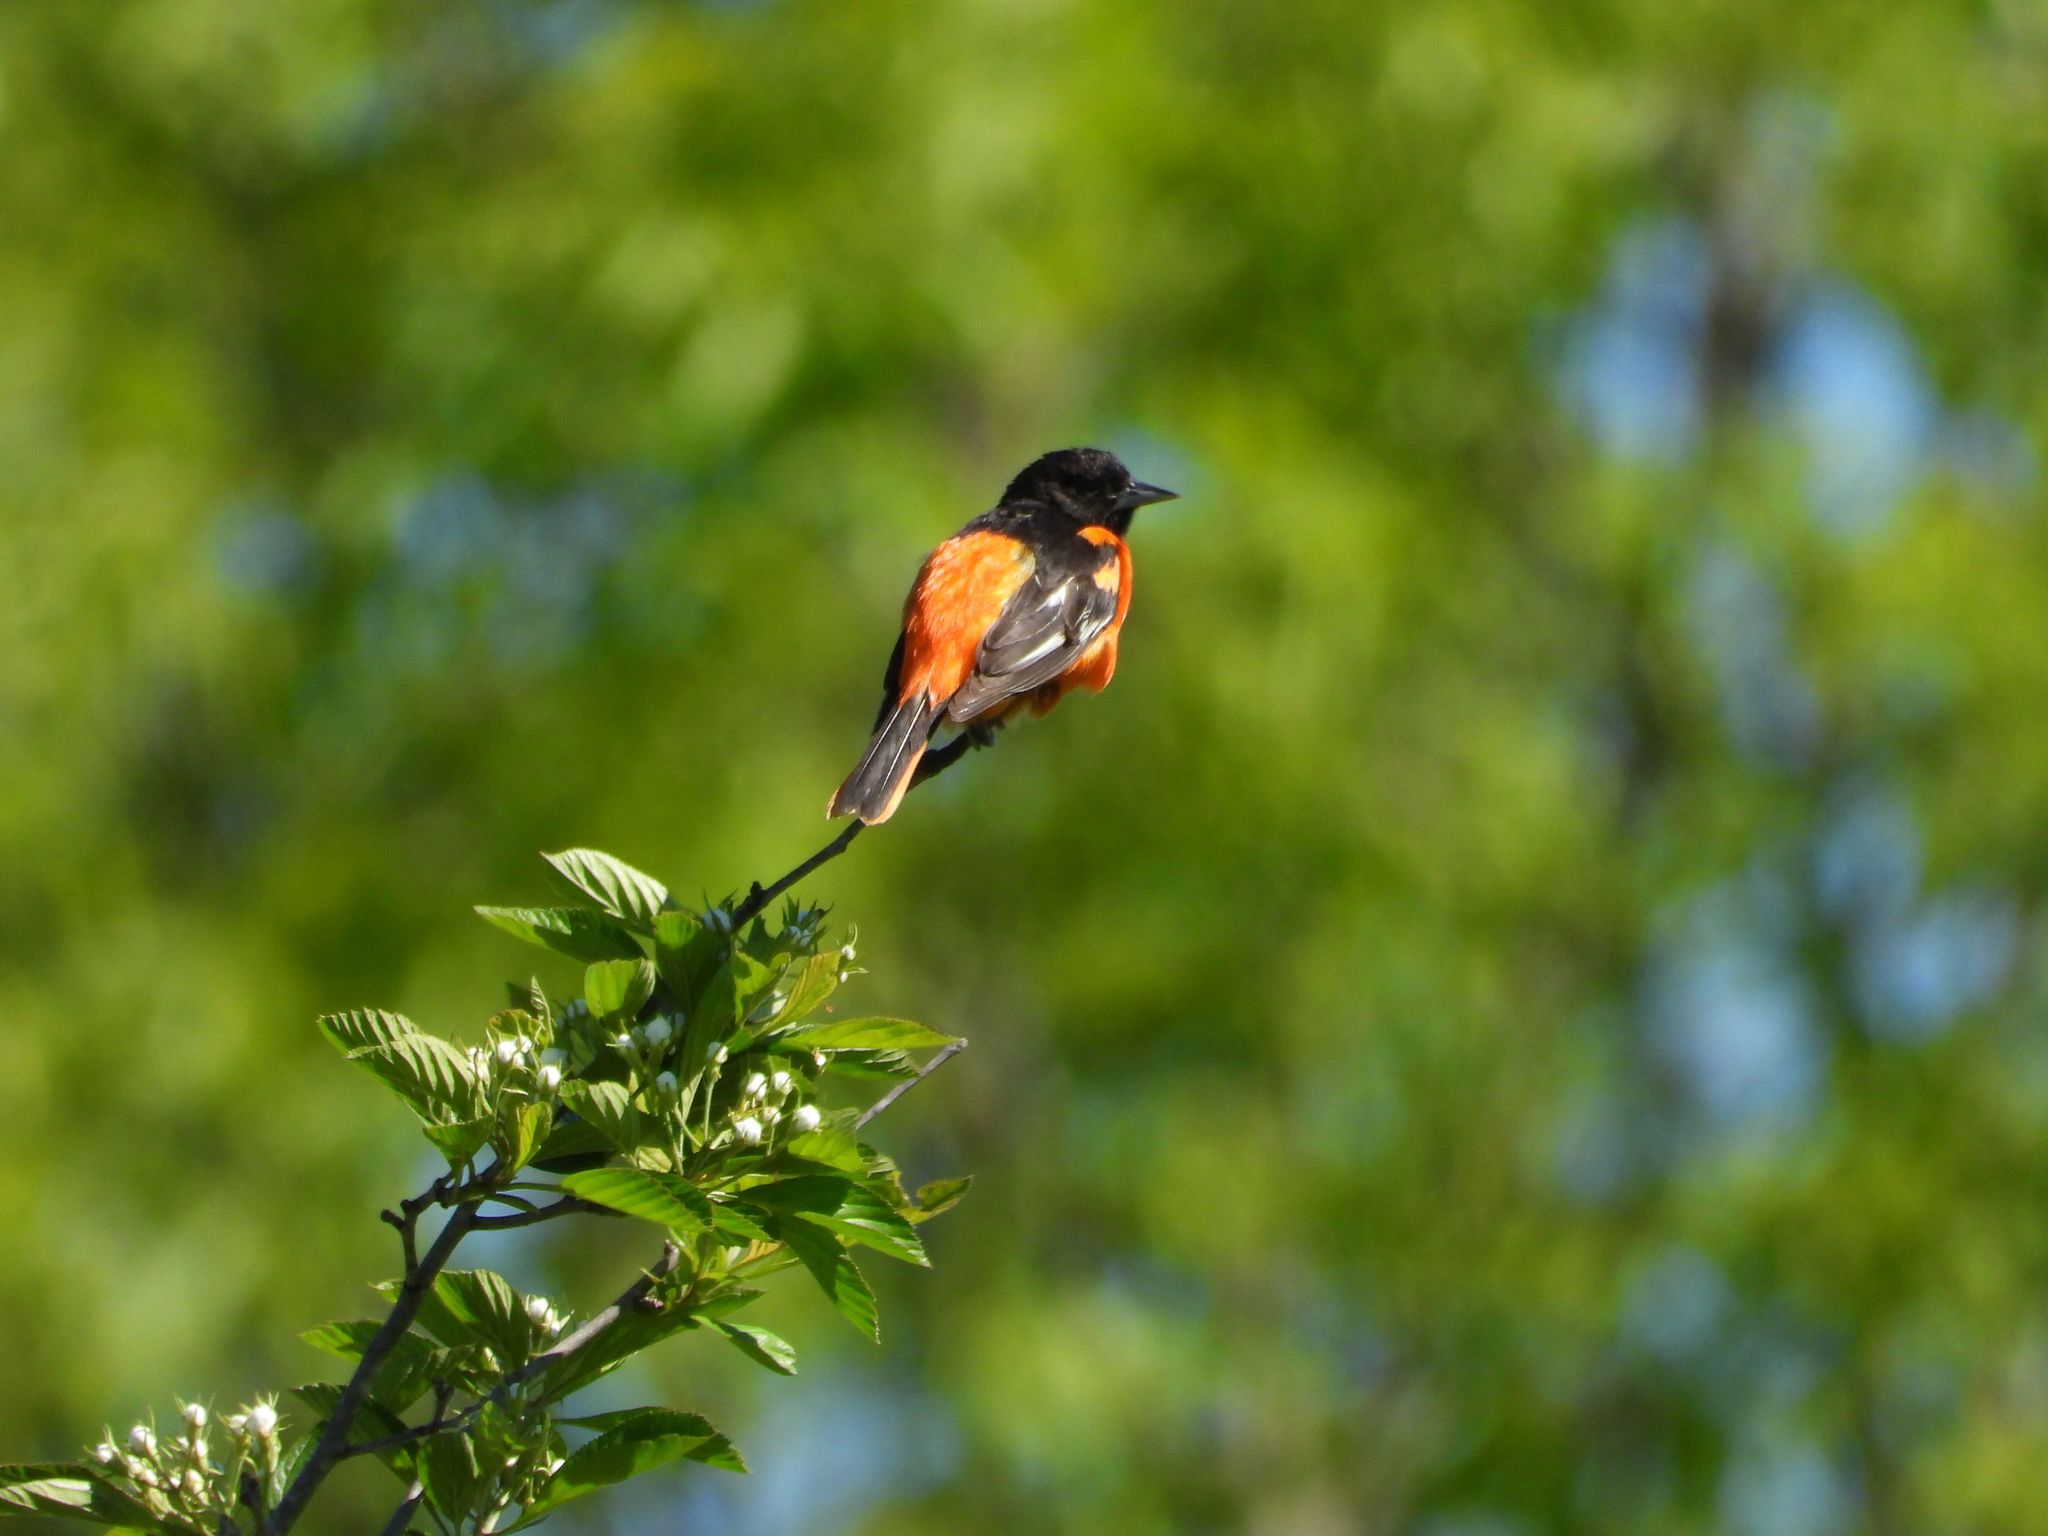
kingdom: Animalia
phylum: Chordata
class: Aves
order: Passeriformes
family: Icteridae
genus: Icterus
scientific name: Icterus galbula
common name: Baltimore oriole
